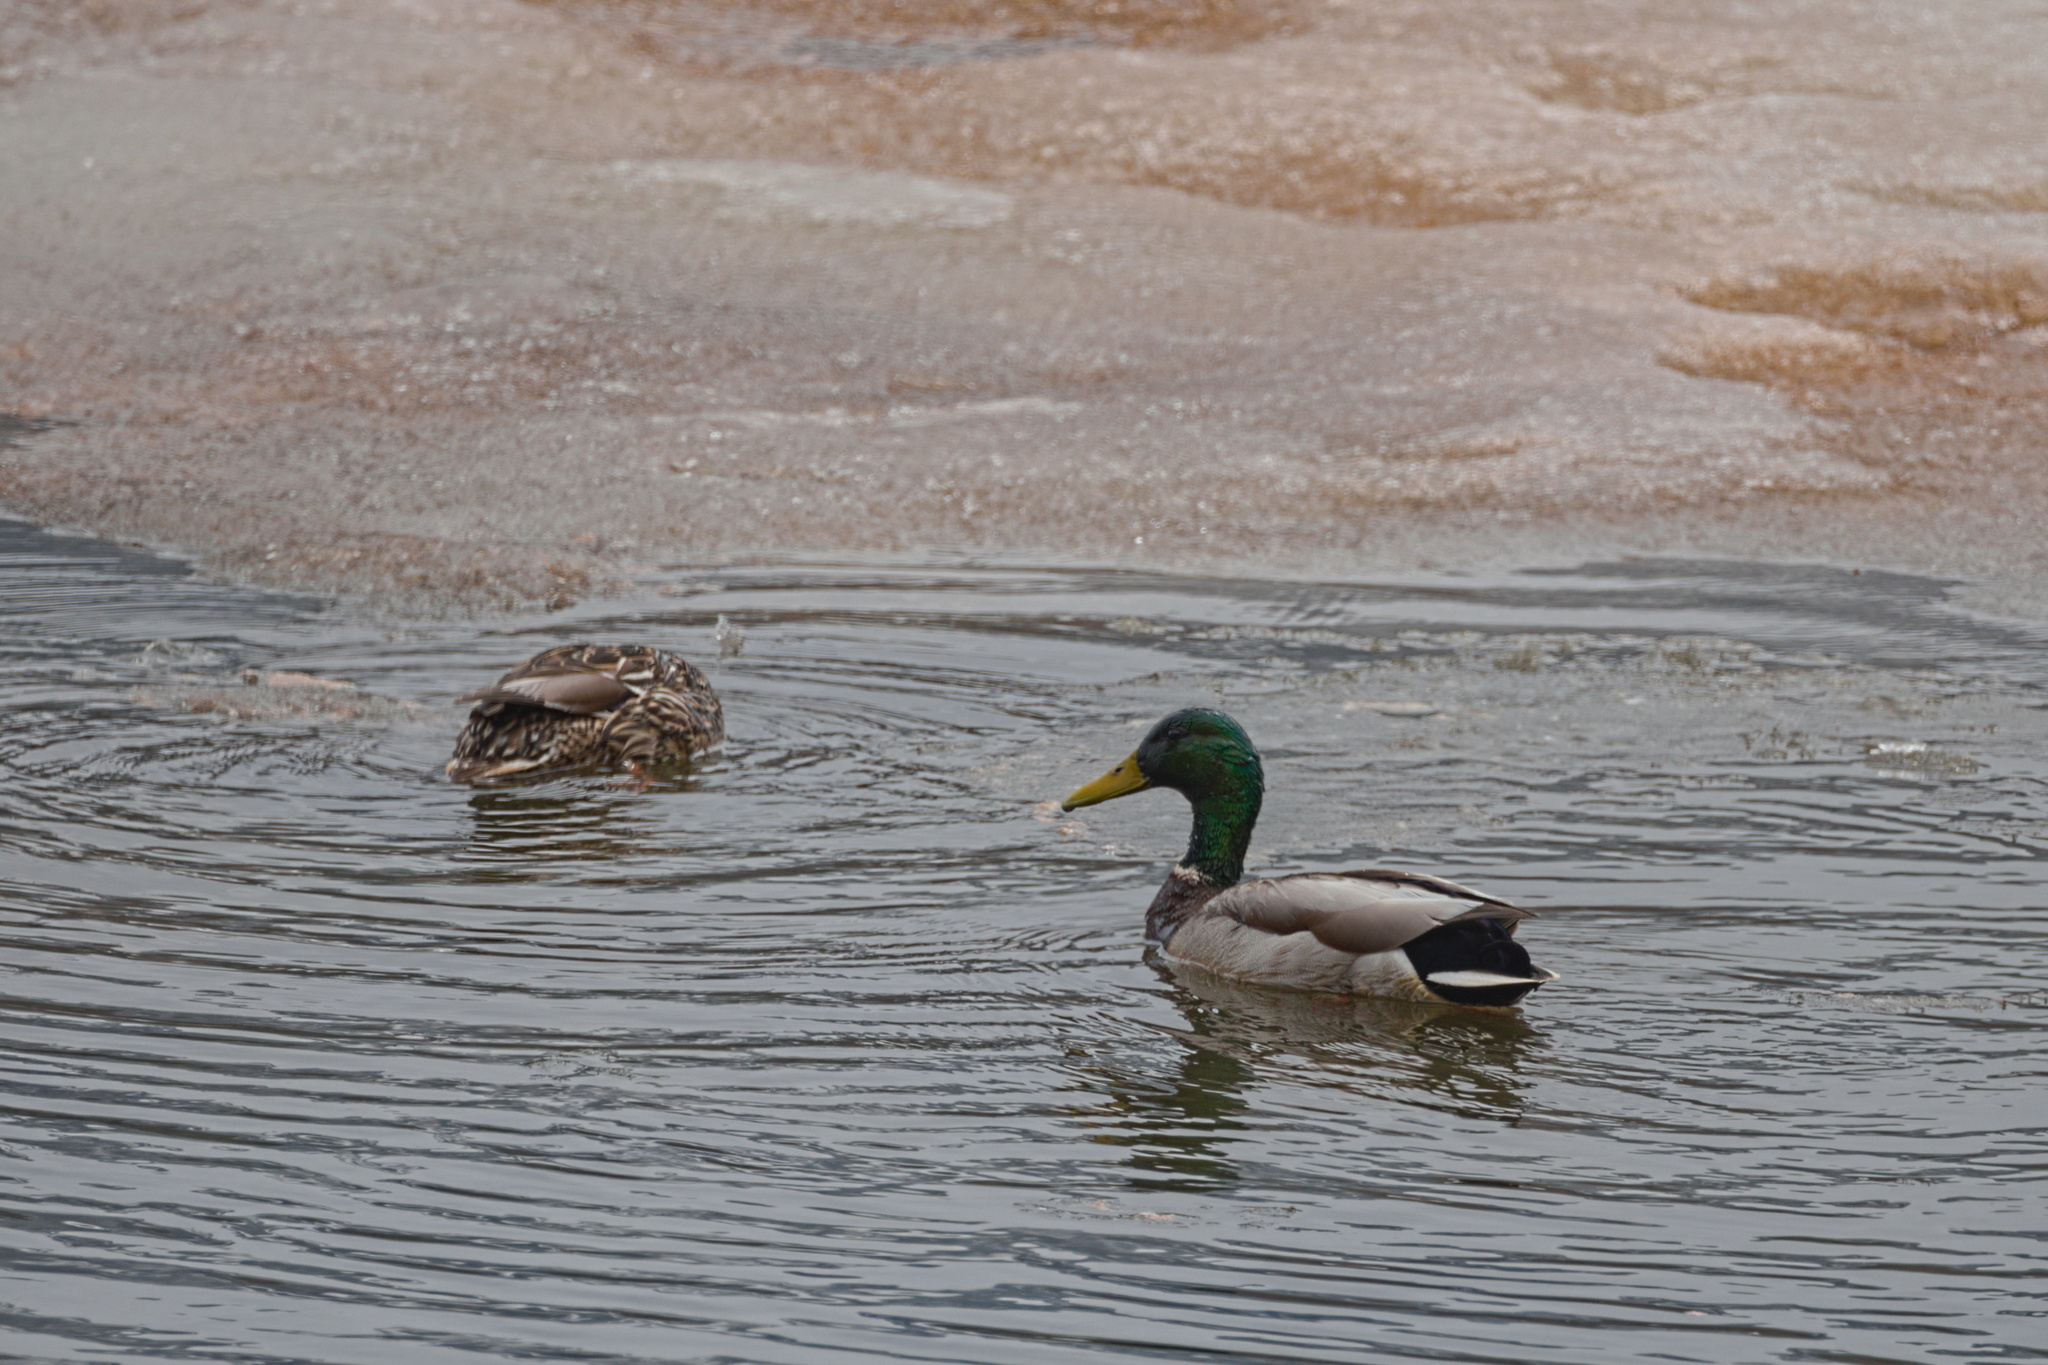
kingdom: Animalia
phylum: Chordata
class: Aves
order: Anseriformes
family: Anatidae
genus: Anas
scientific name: Anas platyrhynchos
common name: Mallard
